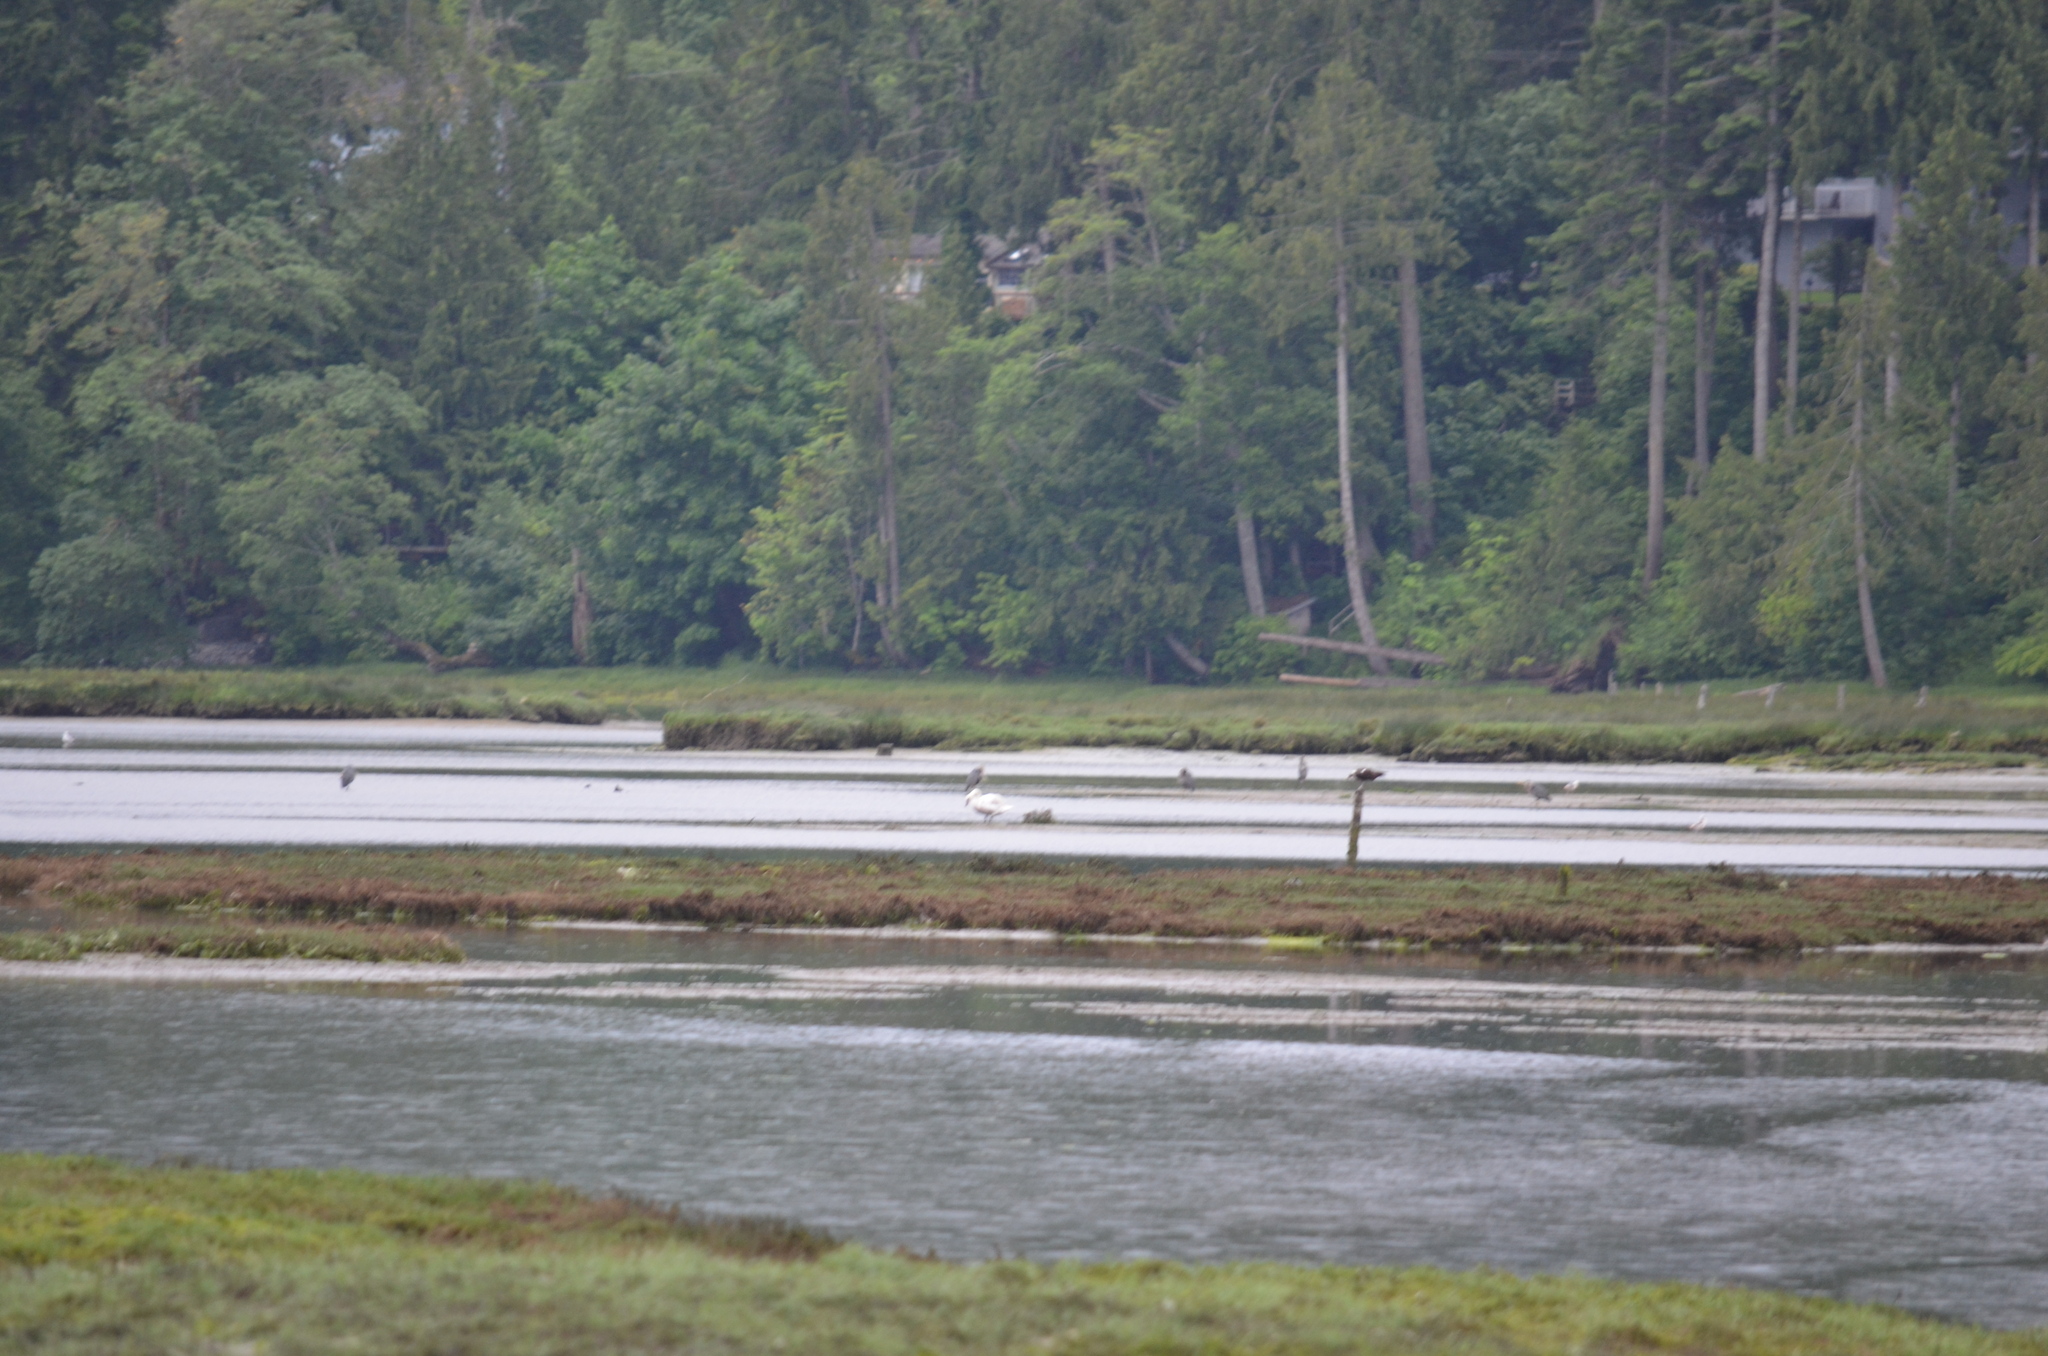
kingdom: Animalia
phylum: Chordata
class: Aves
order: Accipitriformes
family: Pandionidae
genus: Pandion
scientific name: Pandion haliaetus
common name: Osprey
